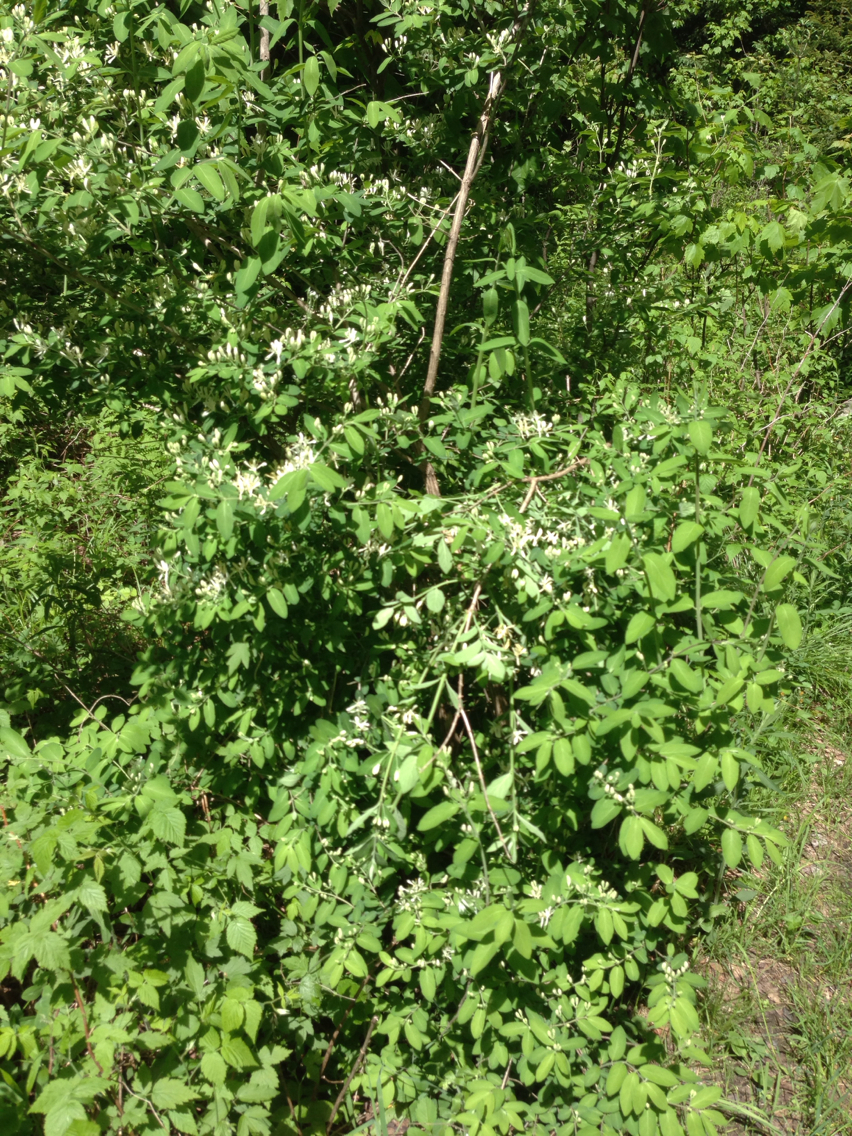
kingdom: Plantae
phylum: Tracheophyta
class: Magnoliopsida
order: Dipsacales
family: Caprifoliaceae
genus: Lonicera
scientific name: Lonicera morrowii
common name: Morrow's honeysuckle
